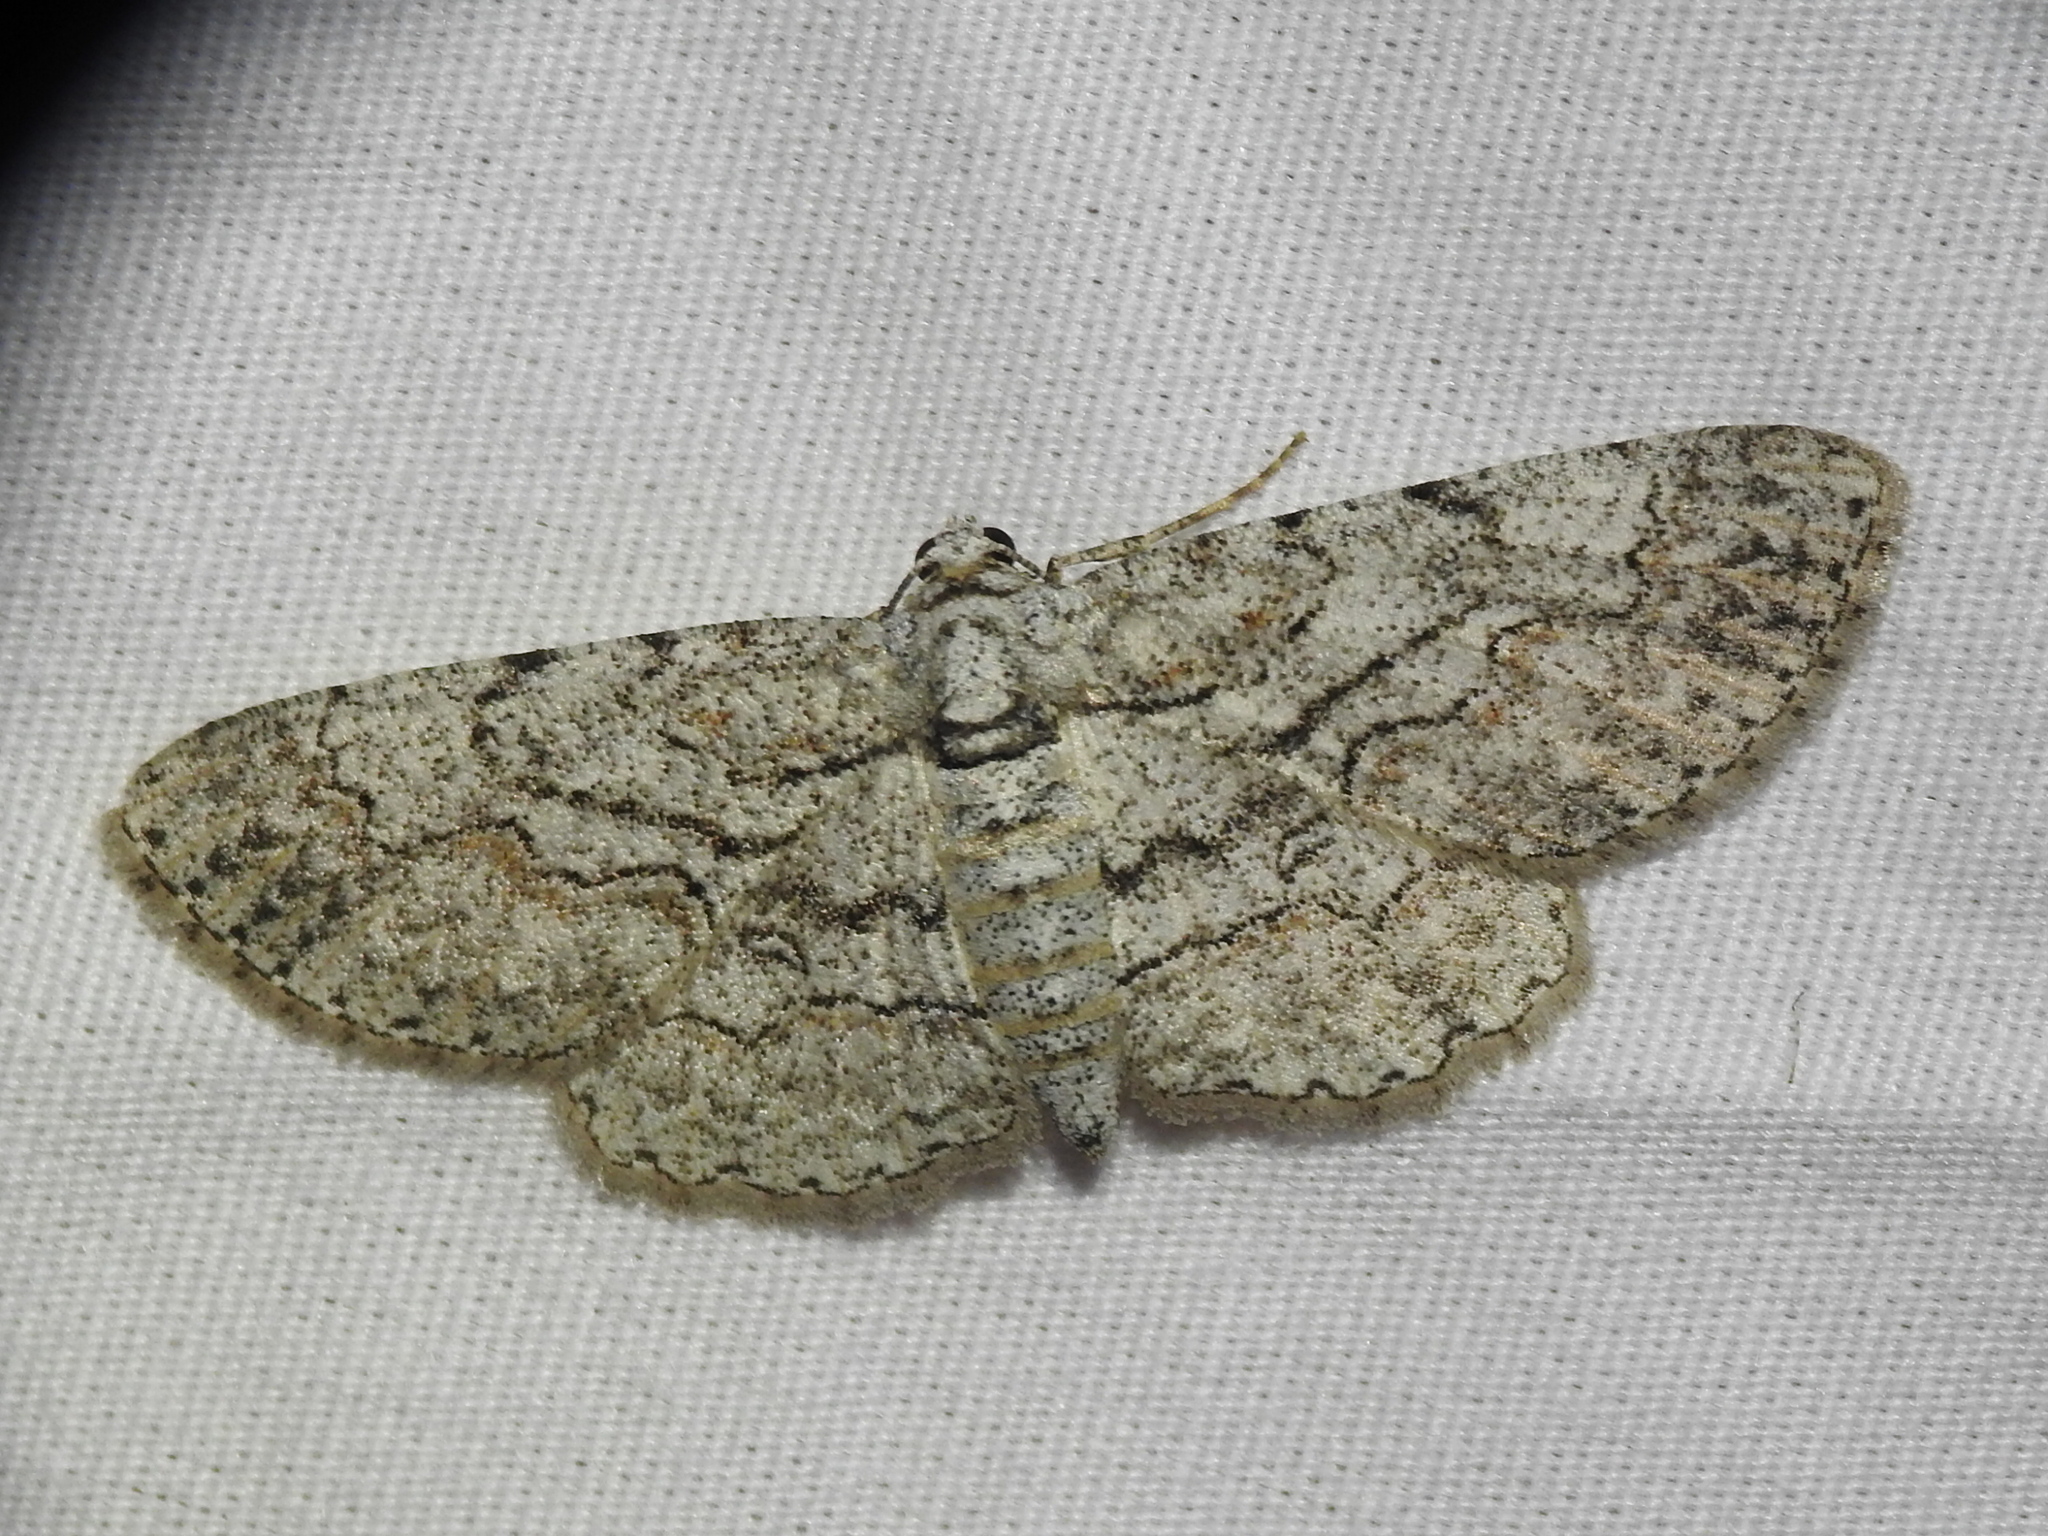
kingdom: Animalia
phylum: Arthropoda
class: Insecta
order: Lepidoptera
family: Geometridae
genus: Iridopsis
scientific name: Iridopsis defectaria
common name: Brown-shaded gray
